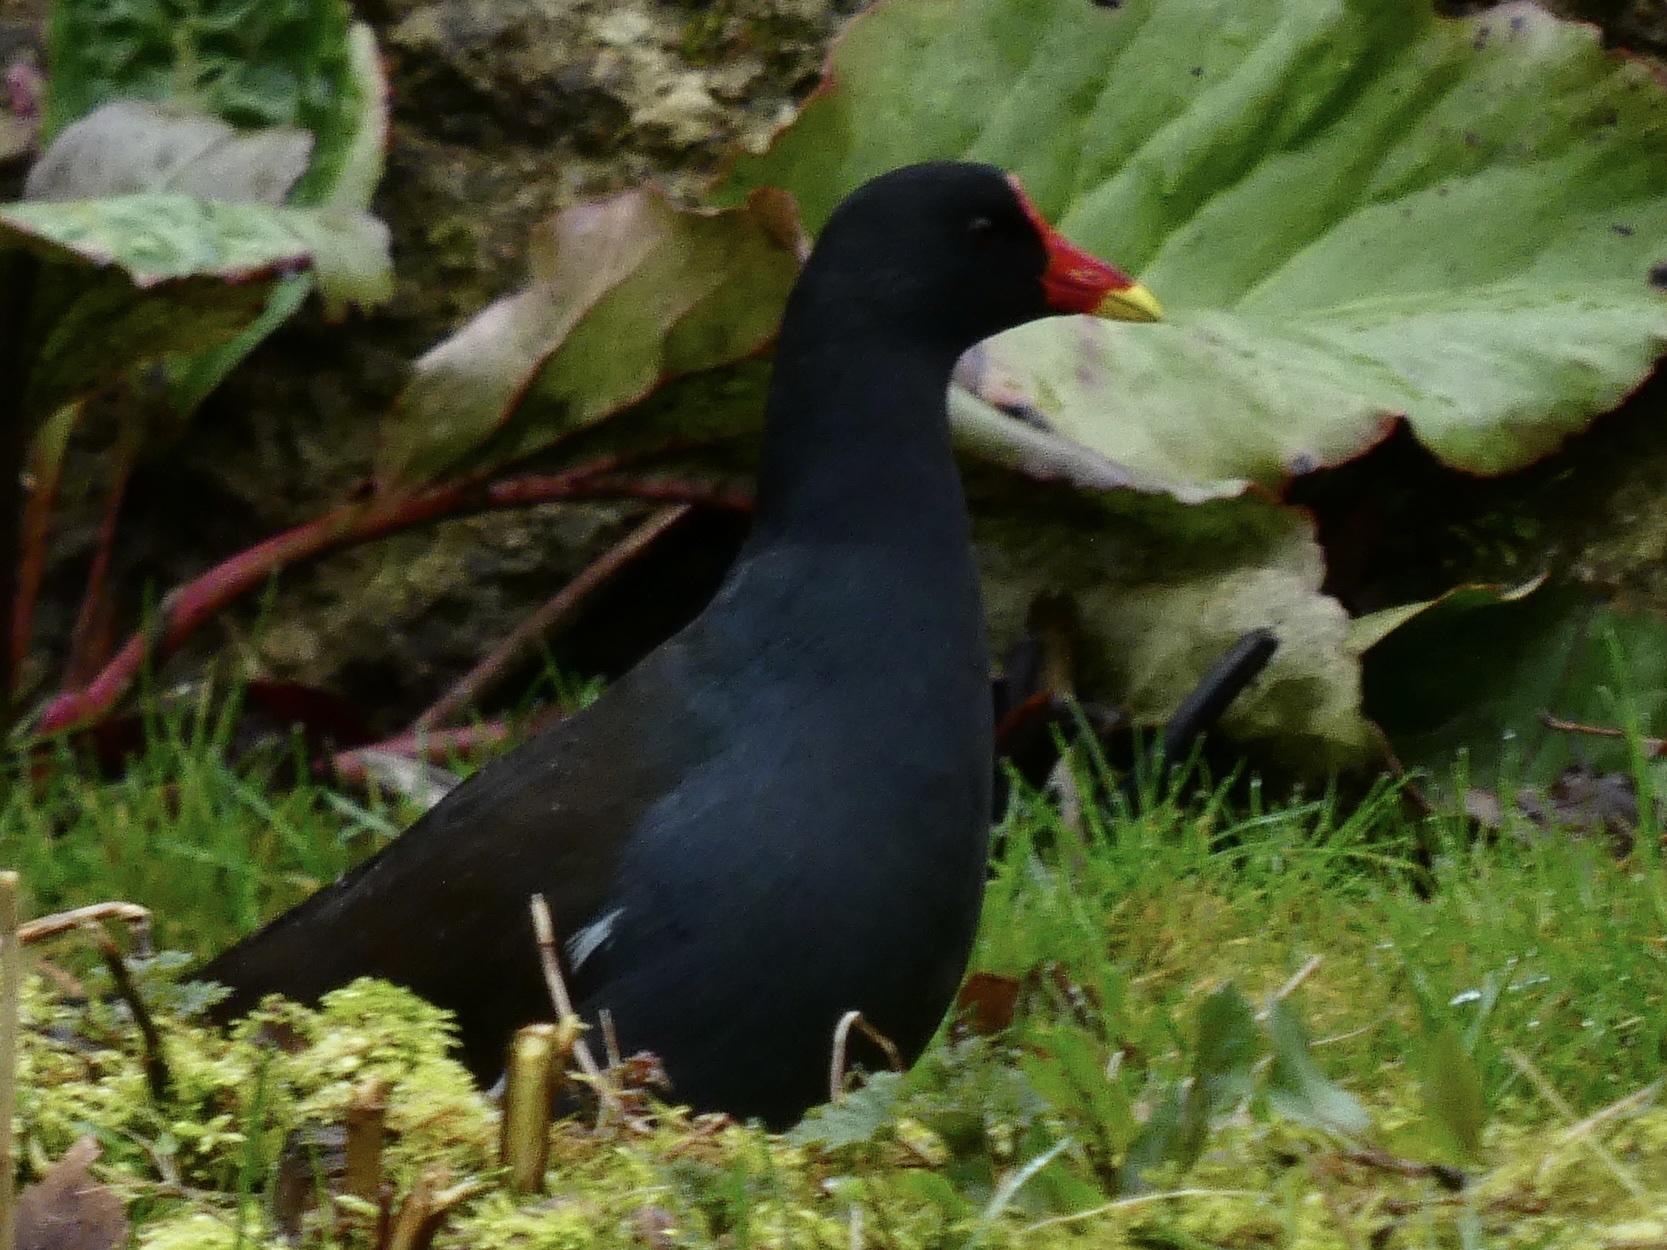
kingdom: Animalia
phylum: Chordata
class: Aves
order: Gruiformes
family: Rallidae
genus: Gallinula
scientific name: Gallinula chloropus
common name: Common moorhen
